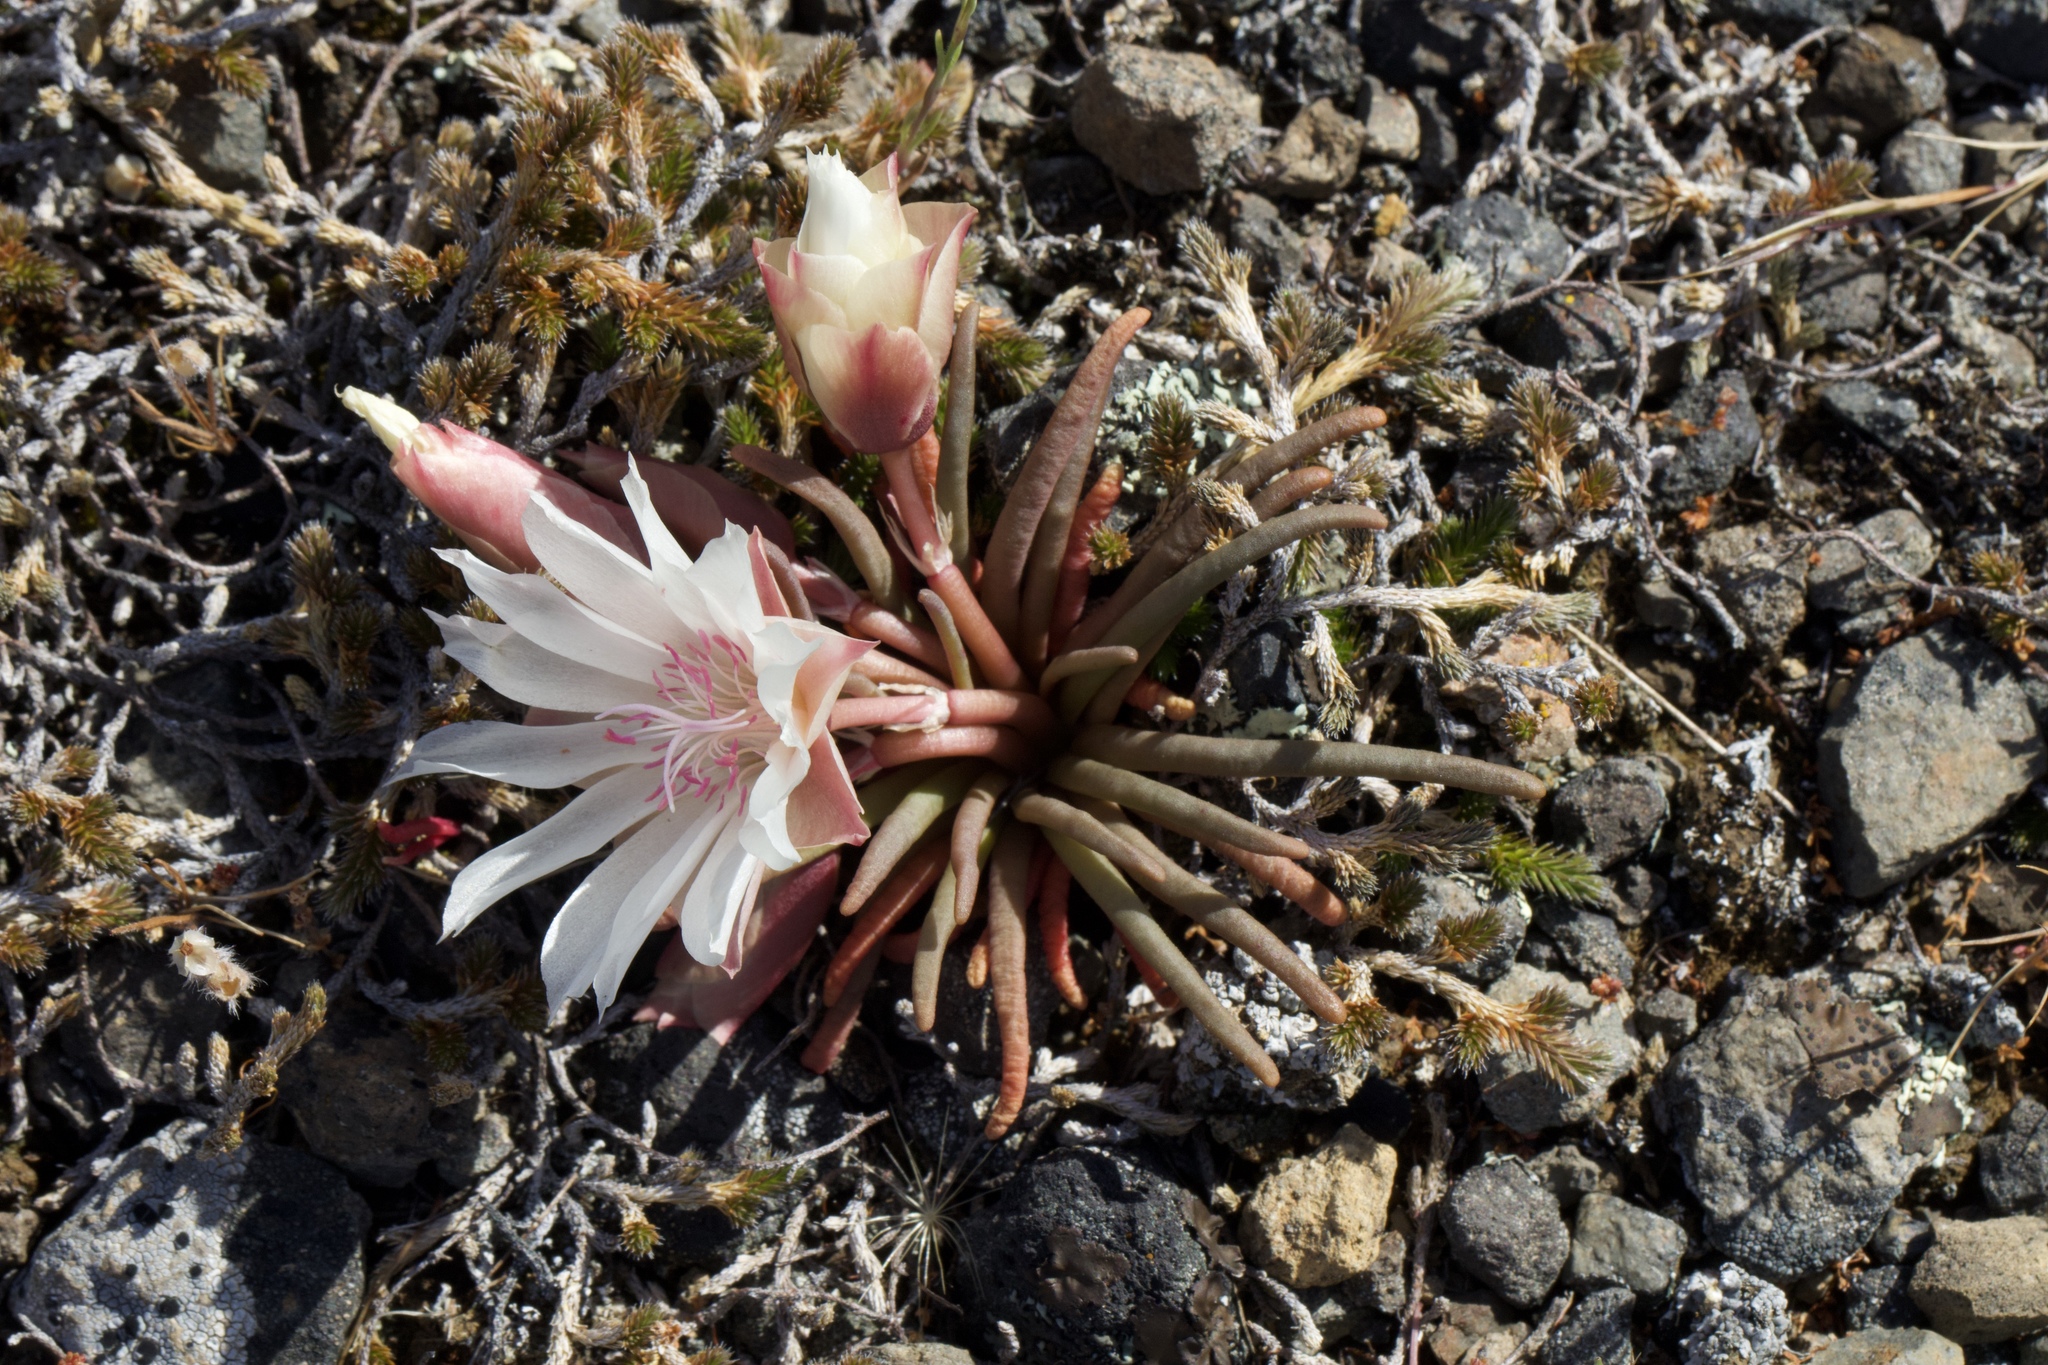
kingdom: Plantae
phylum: Tracheophyta
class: Magnoliopsida
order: Caryophyllales
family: Montiaceae
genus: Lewisia
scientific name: Lewisia rediviva
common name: Bitter-root
